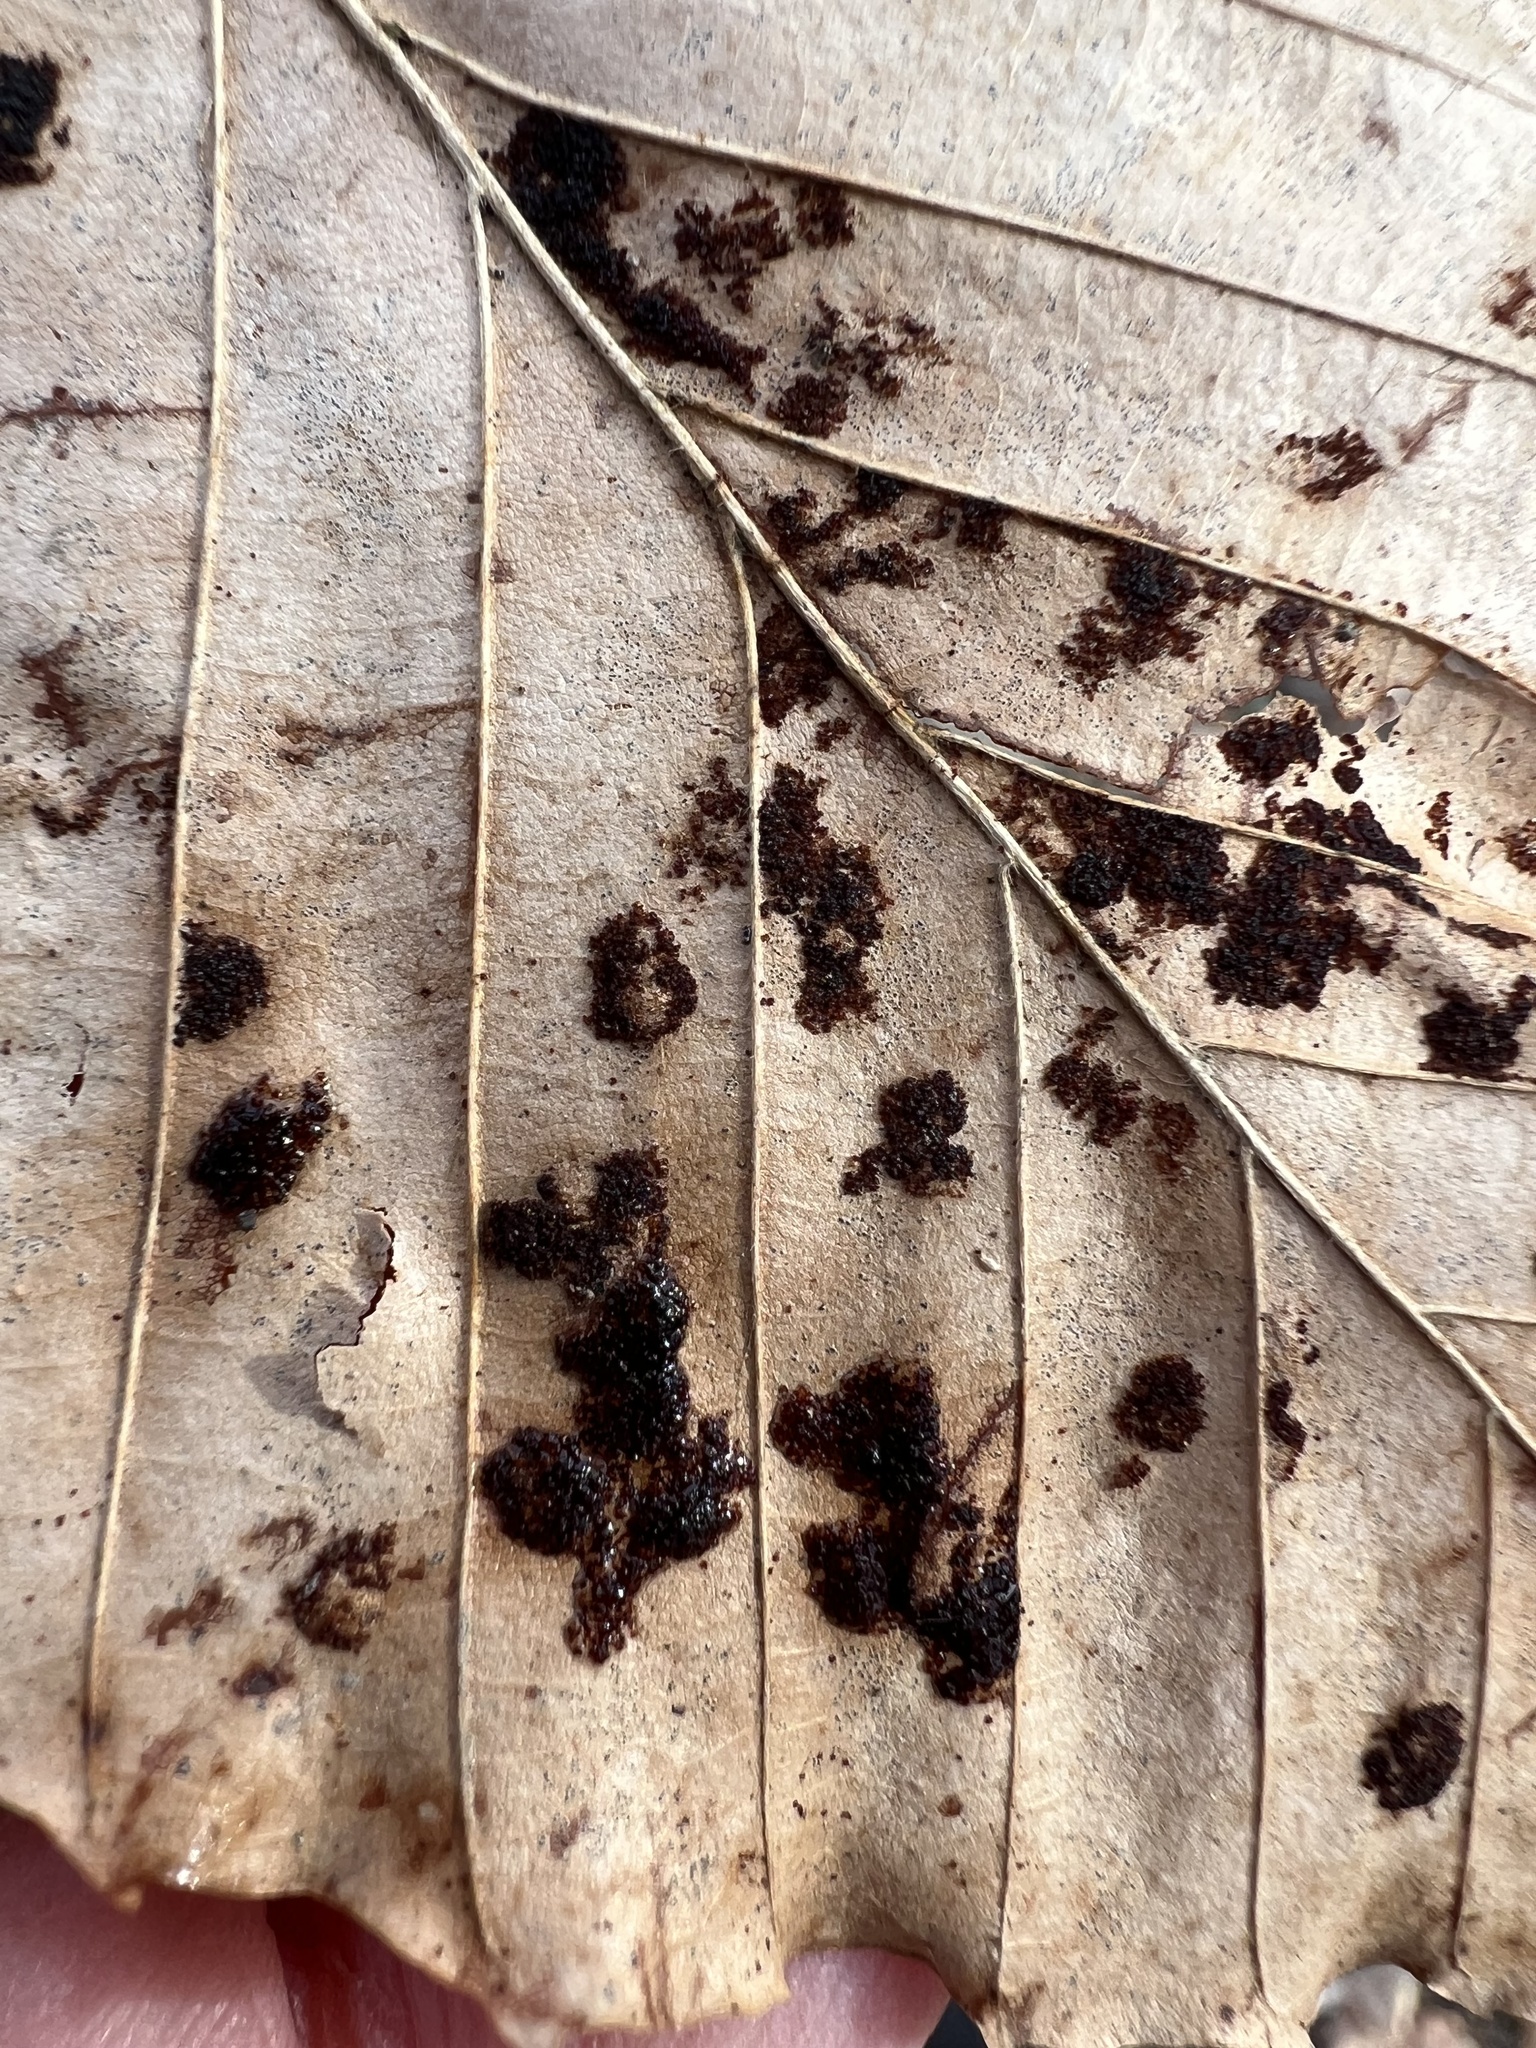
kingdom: Animalia
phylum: Arthropoda
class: Arachnida
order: Trombidiformes
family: Eriophyidae
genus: Acalitus
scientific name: Acalitus
